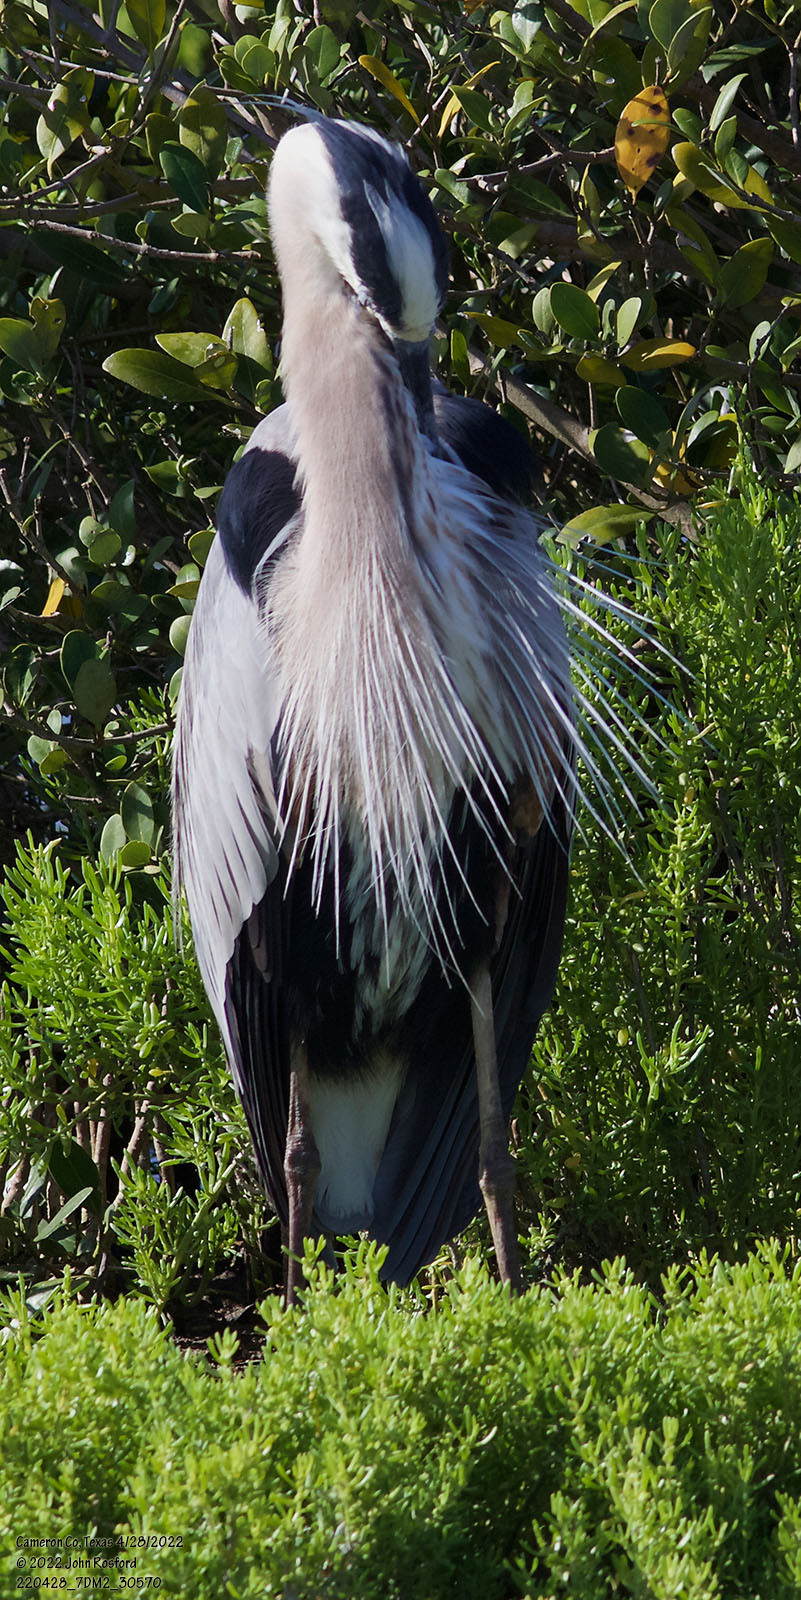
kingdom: Animalia
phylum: Chordata
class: Aves
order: Pelecaniformes
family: Ardeidae
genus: Ardea
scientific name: Ardea herodias
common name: Great blue heron
